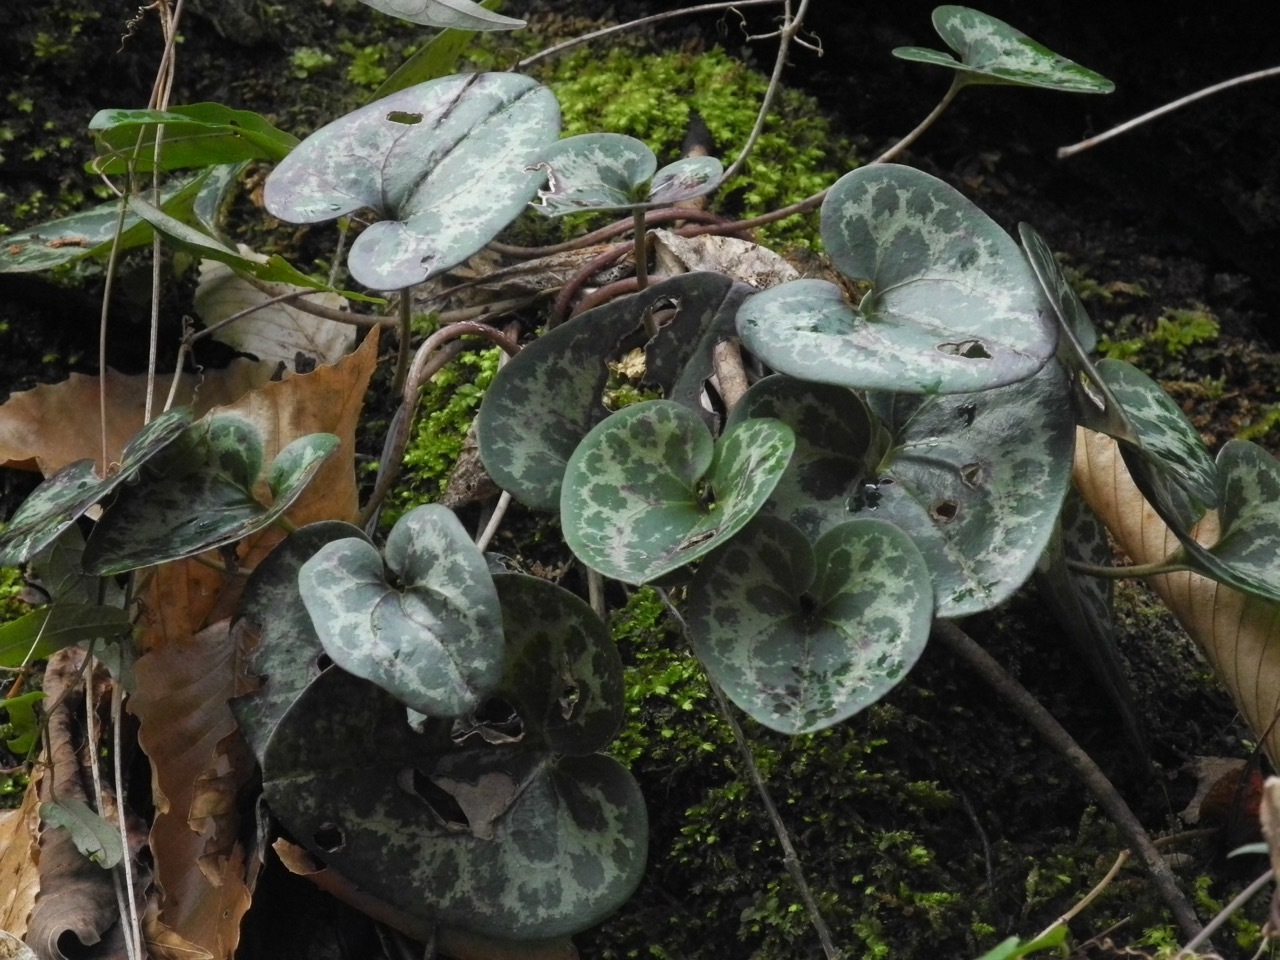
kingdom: Plantae
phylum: Tracheophyta
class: Magnoliopsida
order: Piperales
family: Aristolochiaceae
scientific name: Aristolochiaceae
